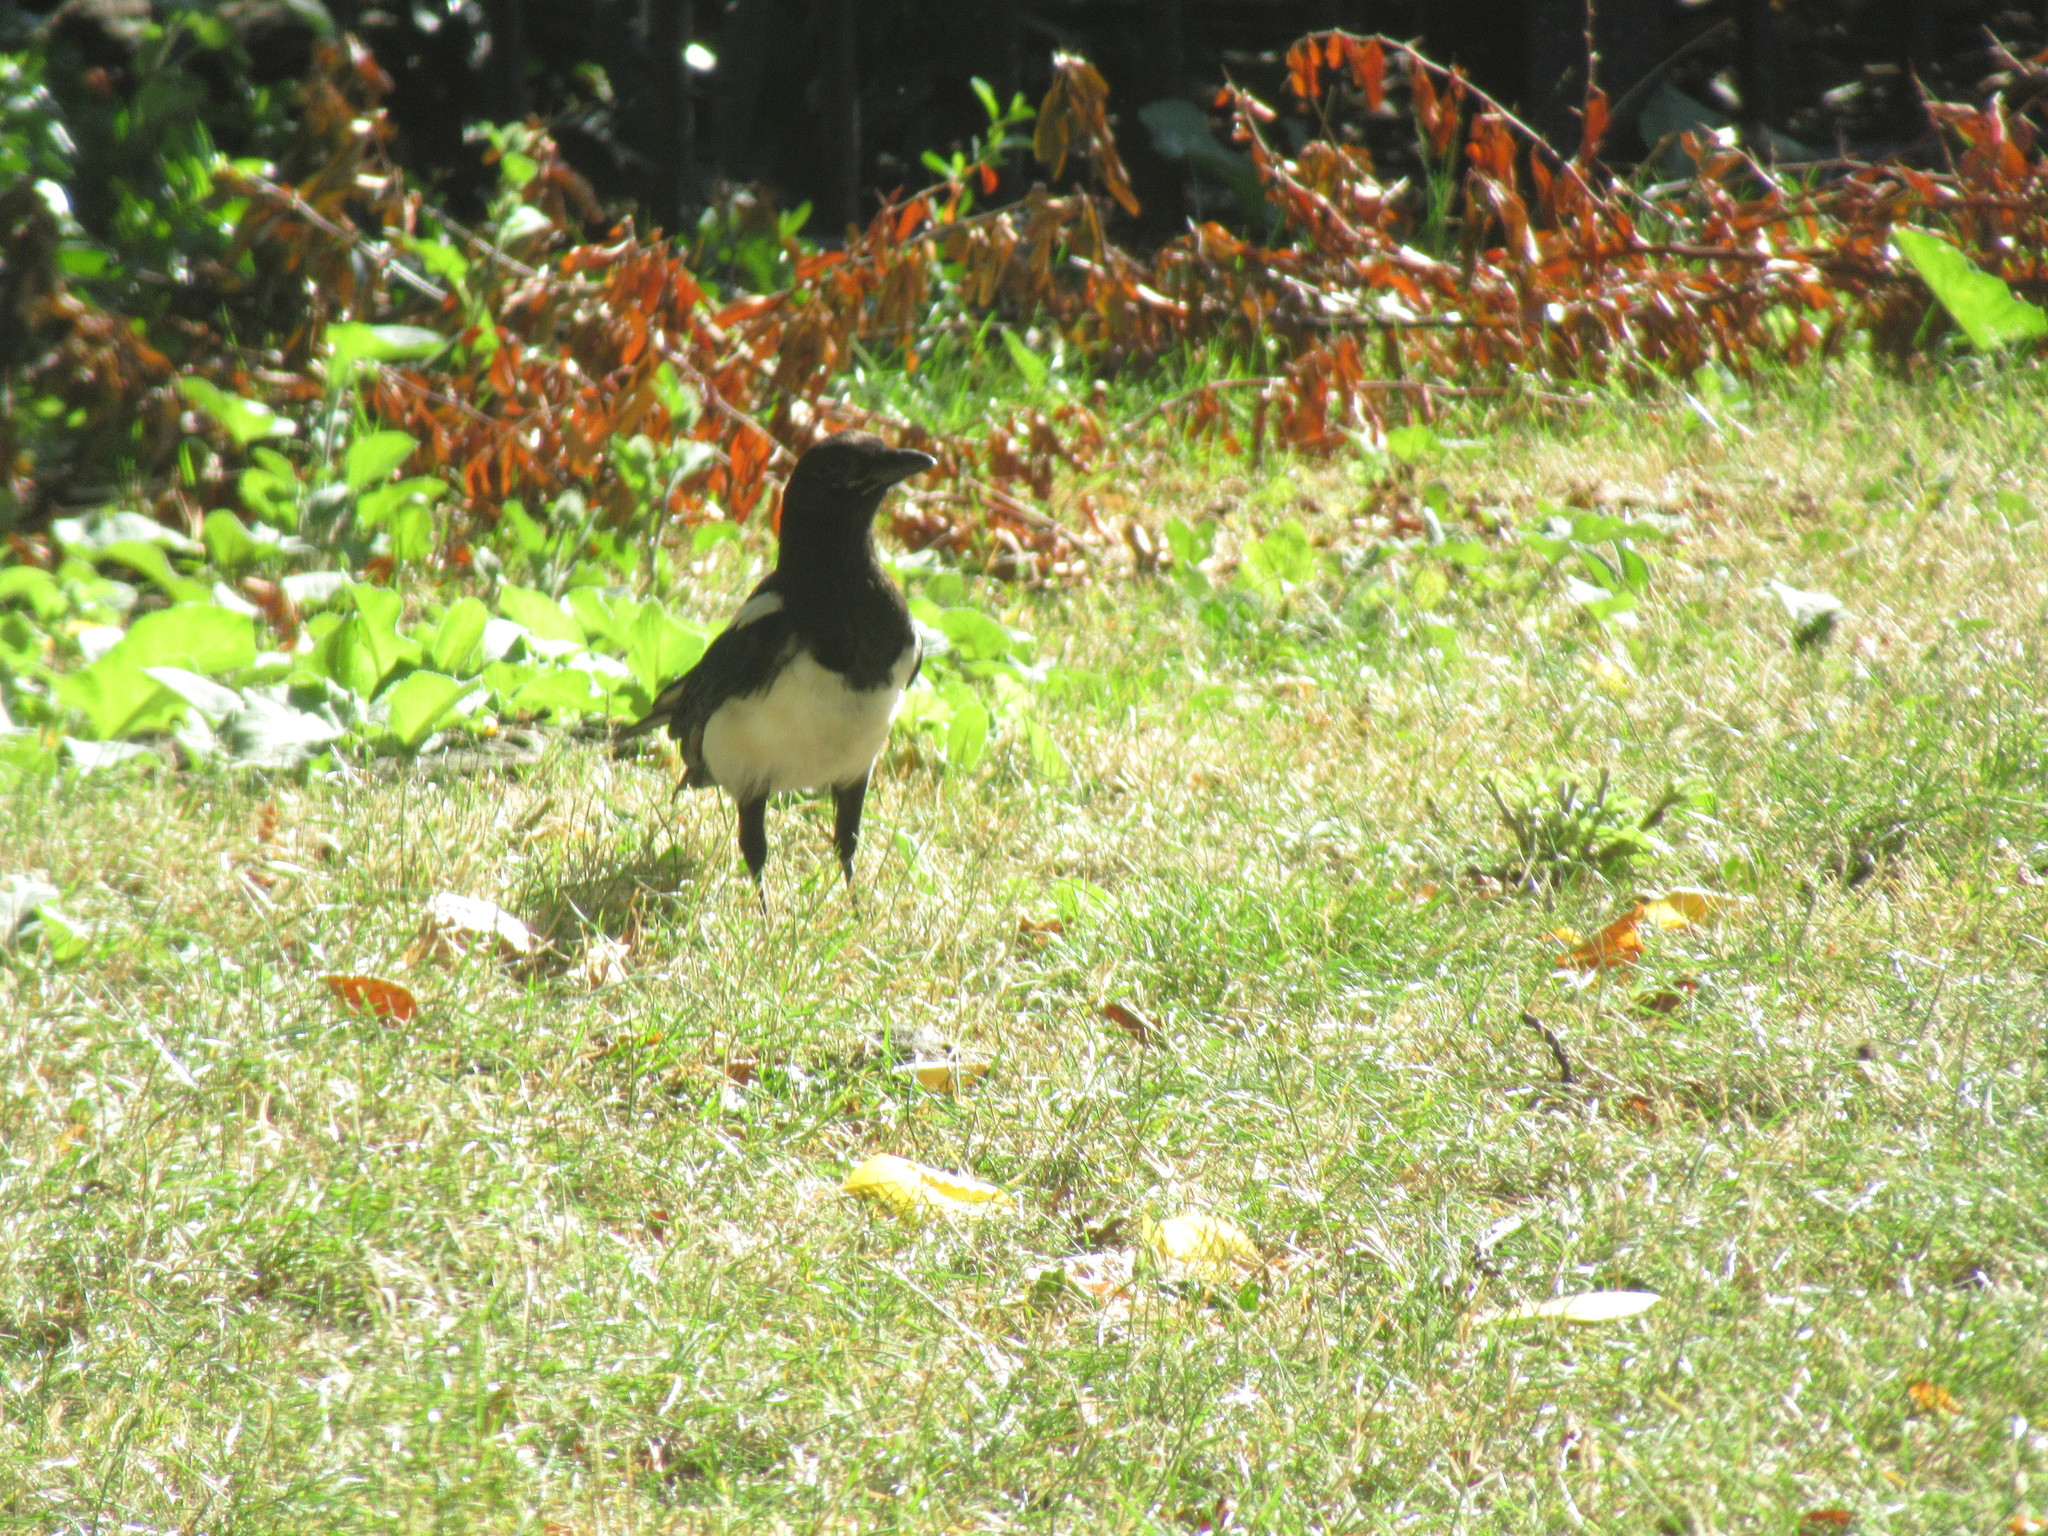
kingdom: Animalia
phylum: Chordata
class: Aves
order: Passeriformes
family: Corvidae
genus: Pica
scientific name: Pica pica
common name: Eurasian magpie
